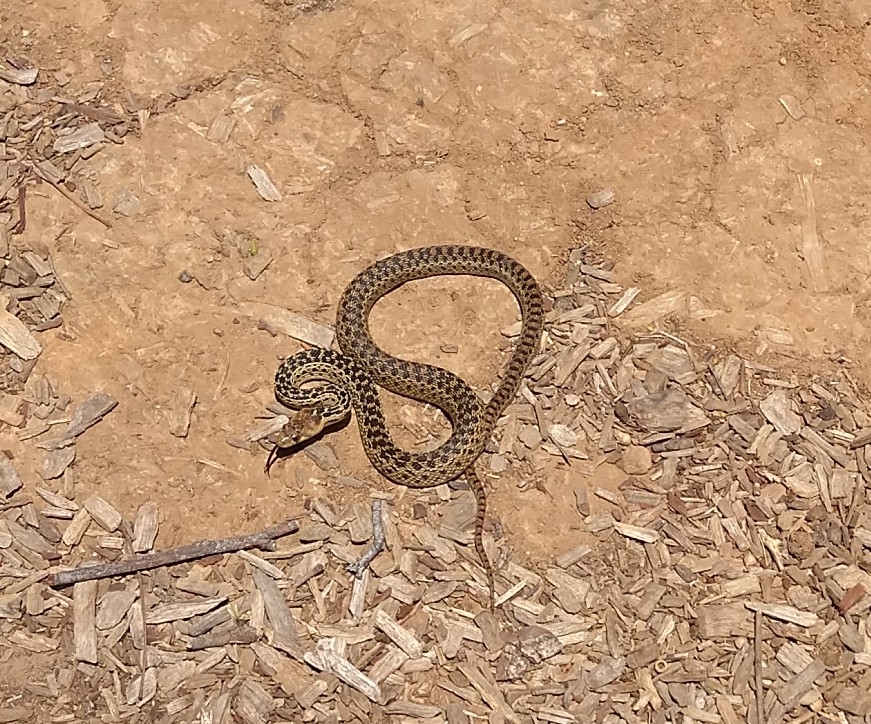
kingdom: Animalia
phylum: Chordata
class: Squamata
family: Colubridae
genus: Pituophis
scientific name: Pituophis catenifer
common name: Gopher snake
